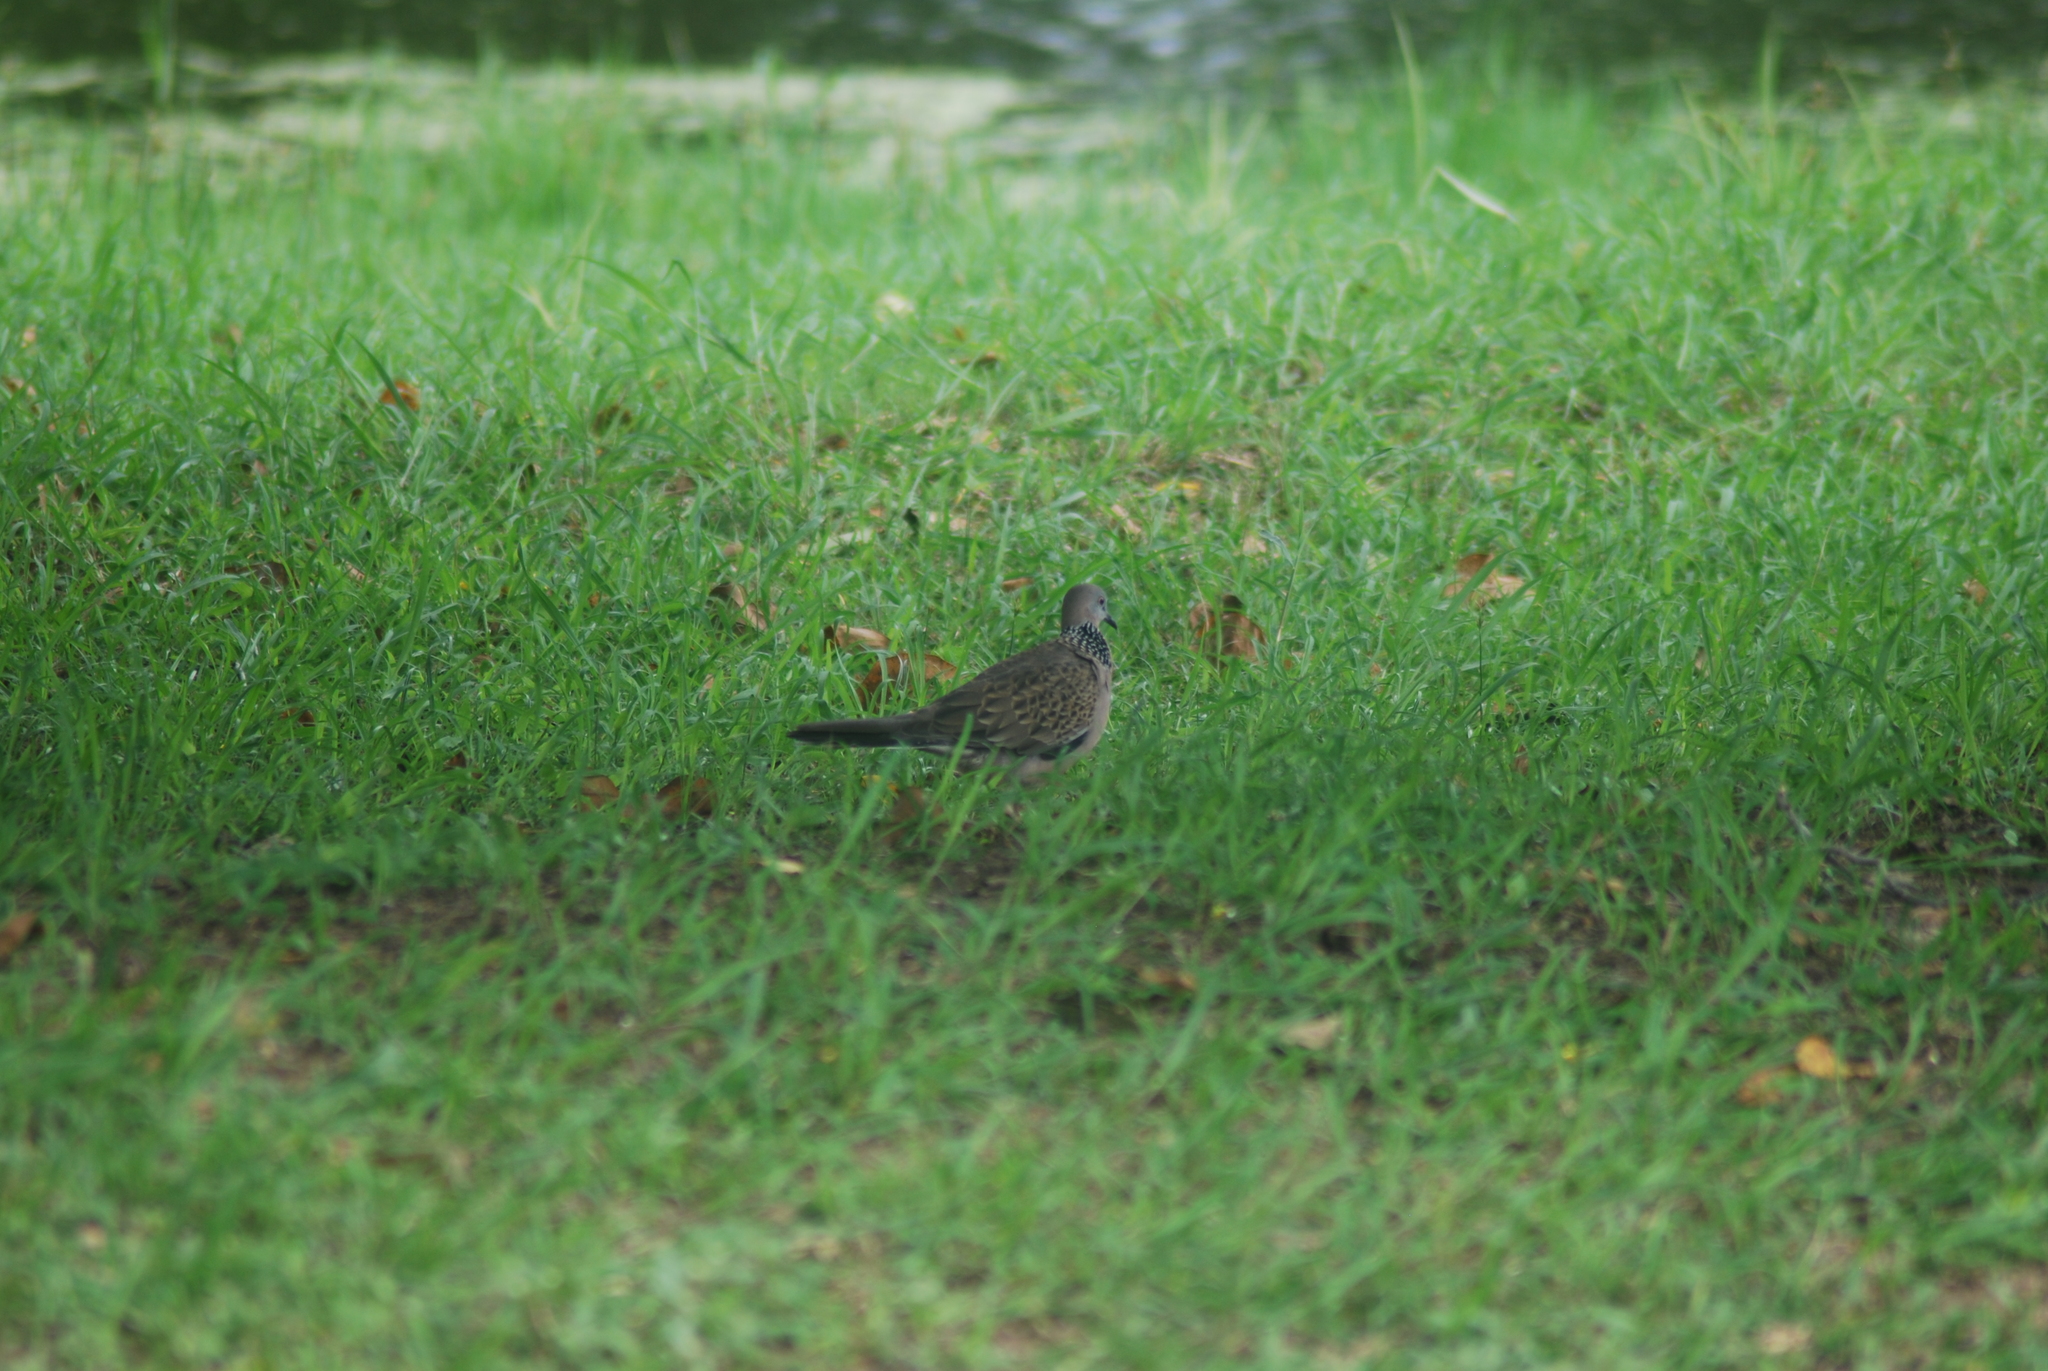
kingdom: Animalia
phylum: Chordata
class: Aves
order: Columbiformes
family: Columbidae
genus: Spilopelia
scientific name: Spilopelia chinensis
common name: Spotted dove
